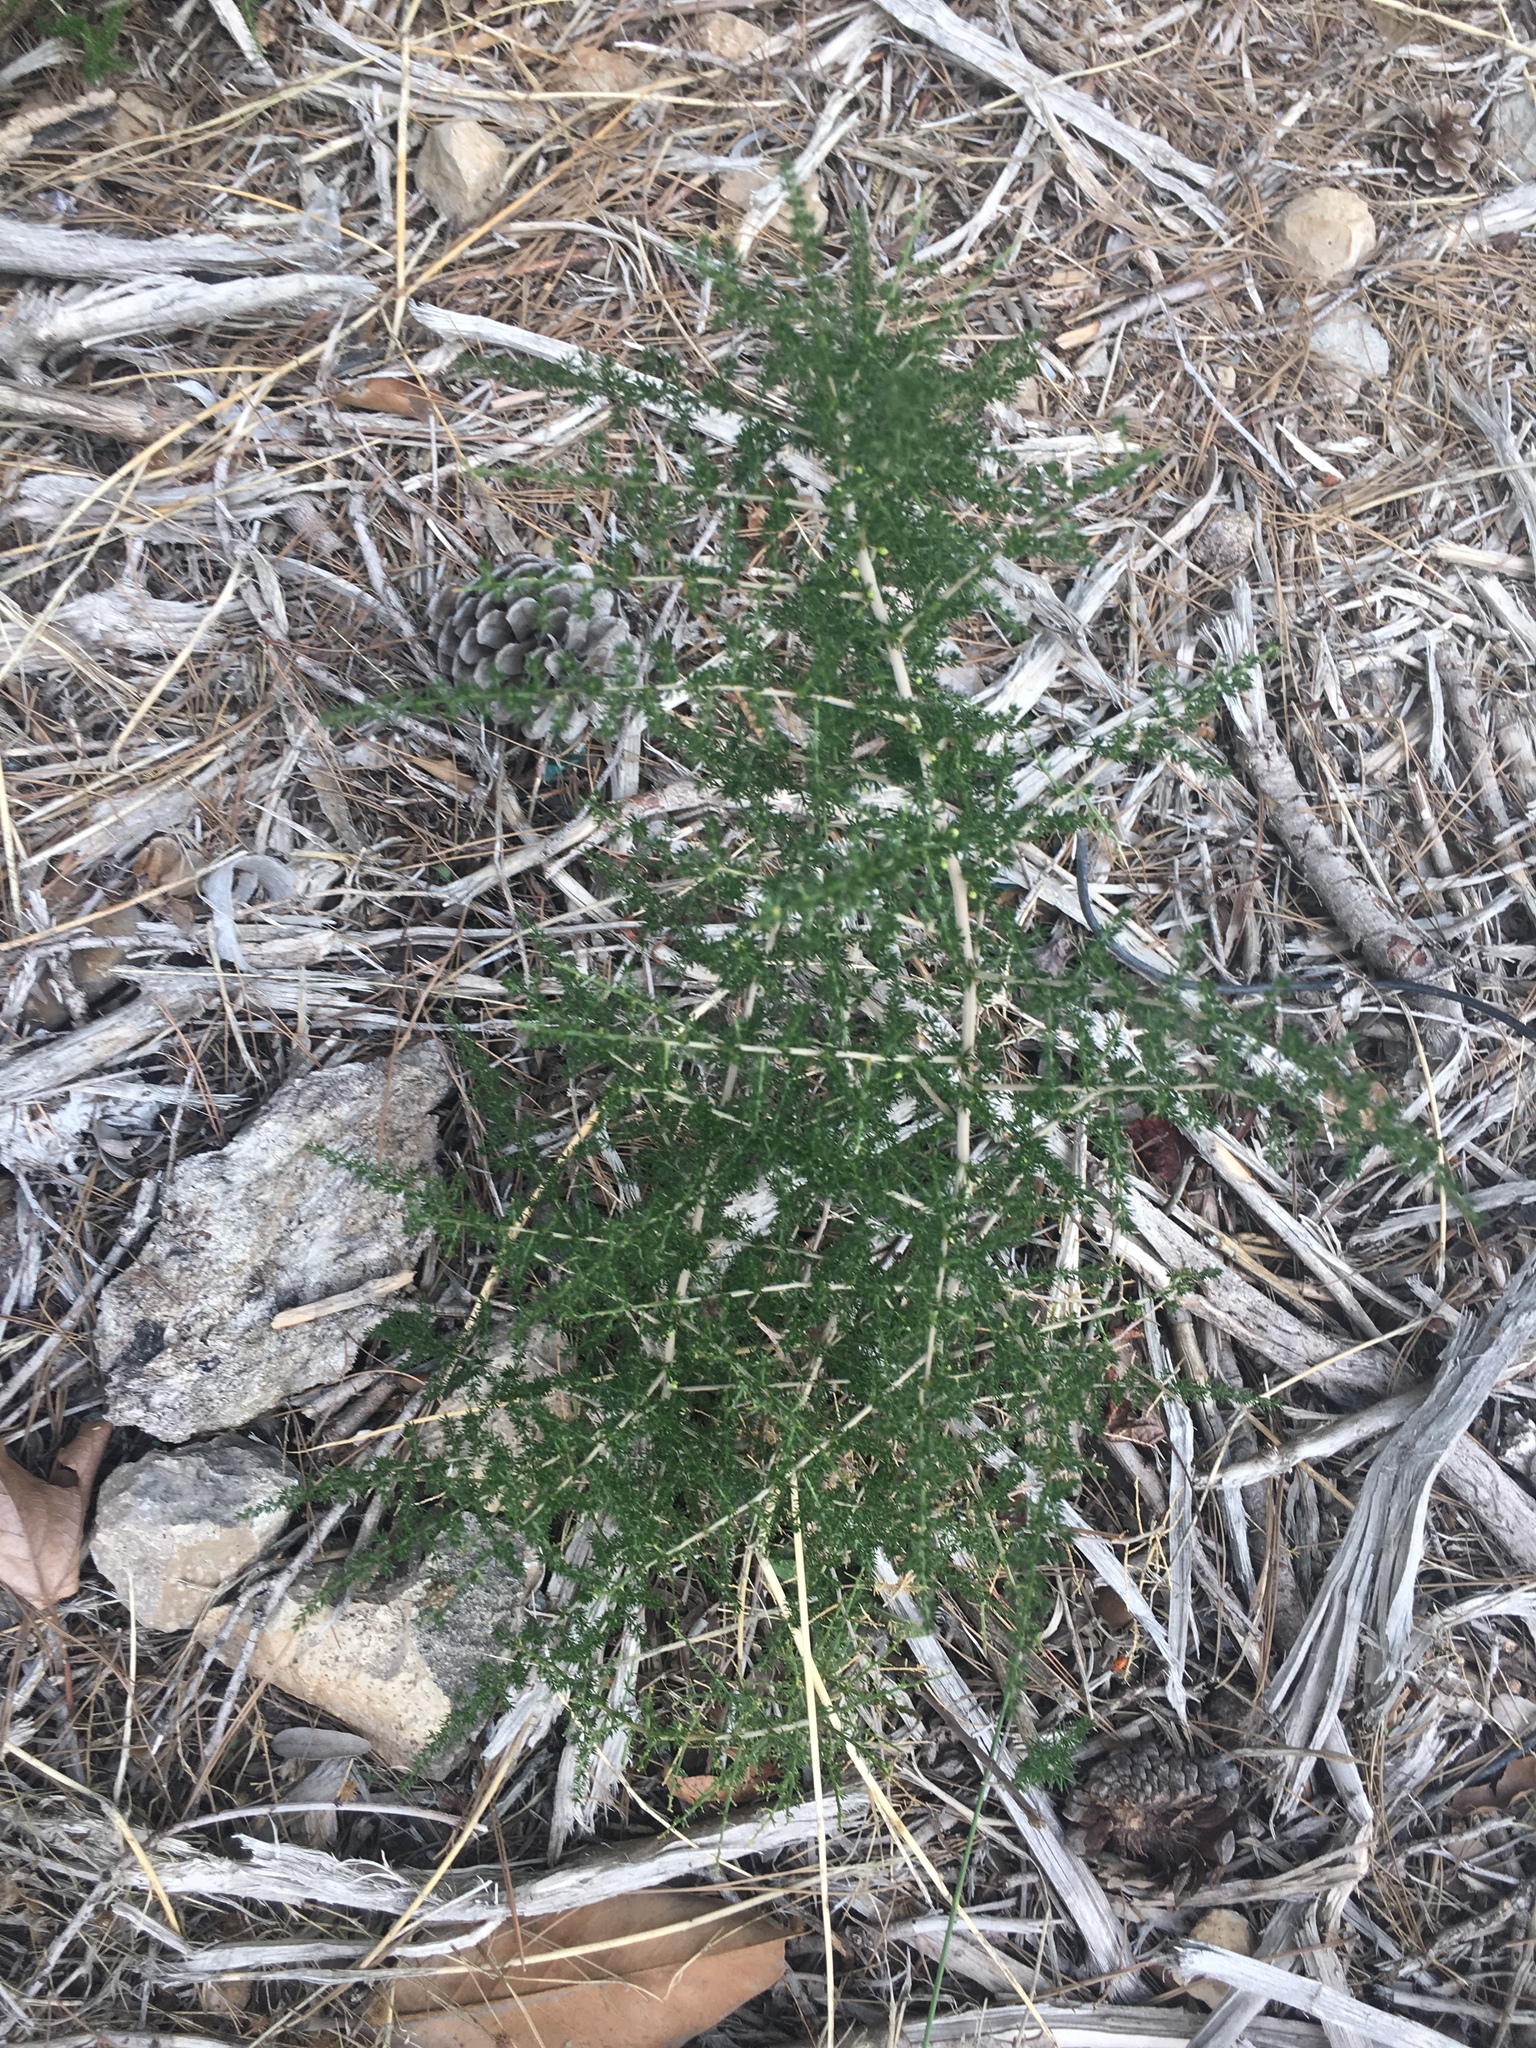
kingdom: Plantae
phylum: Tracheophyta
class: Liliopsida
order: Asparagales
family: Asparagaceae
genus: Asparagus
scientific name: Asparagus acutifolius
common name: Wild asparagus
